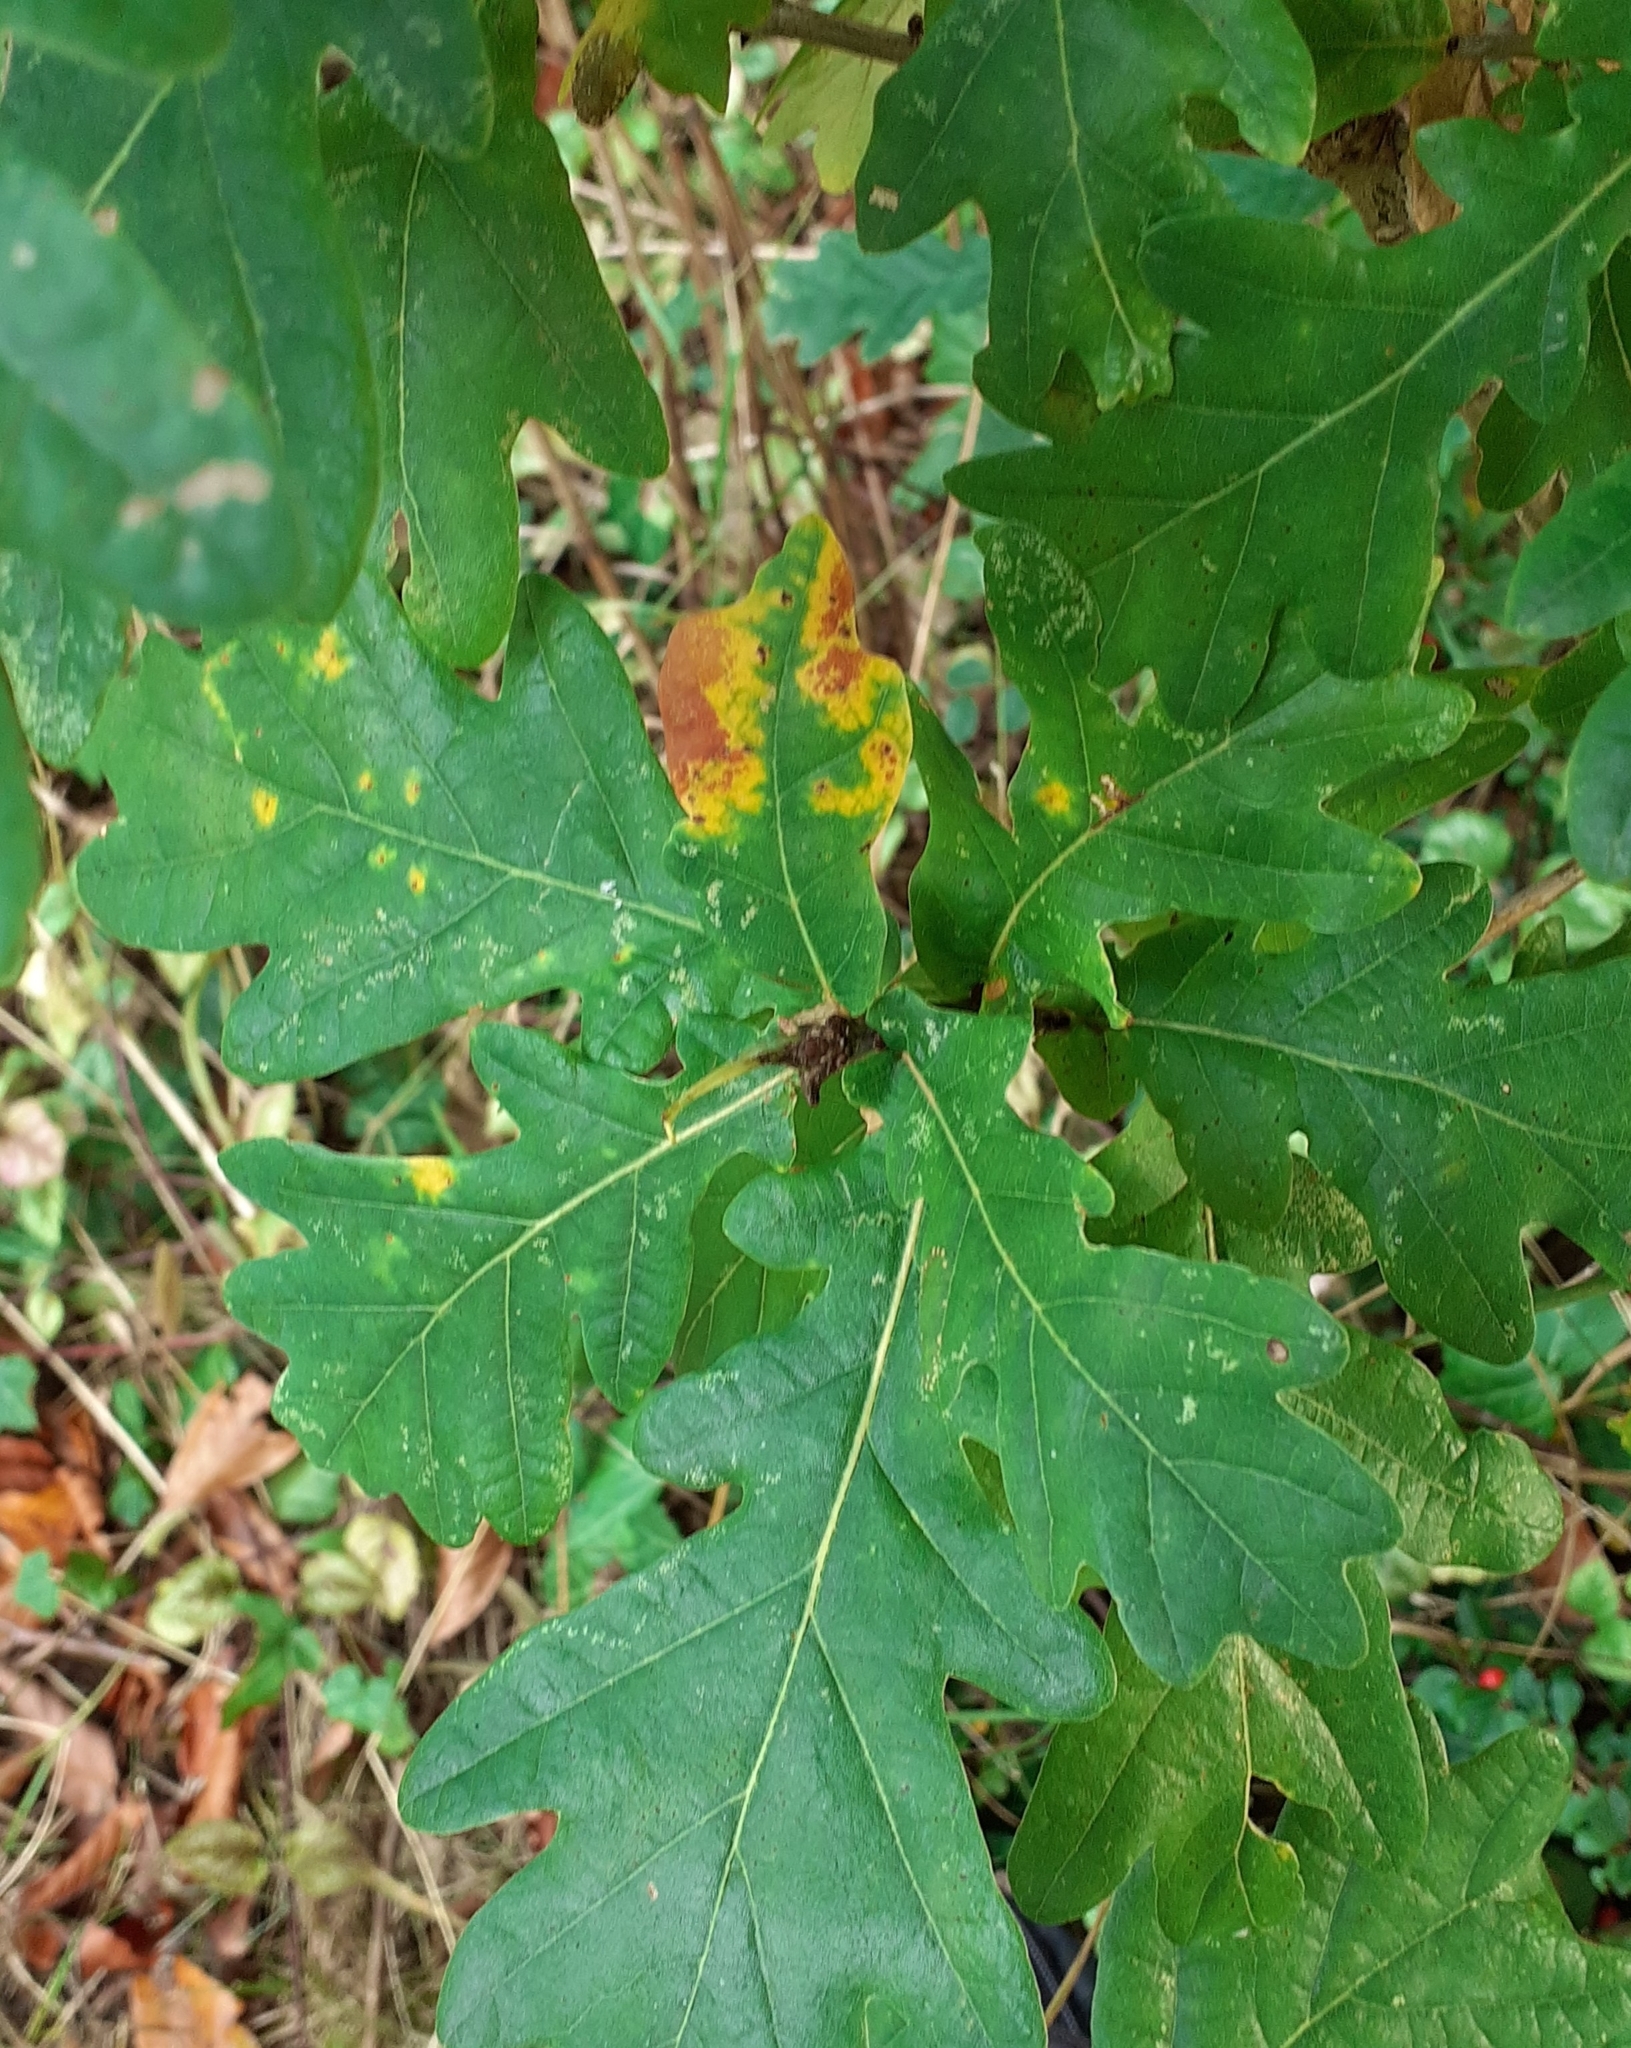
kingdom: Animalia
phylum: Arthropoda
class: Insecta
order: Hymenoptera
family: Cynipidae
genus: Andricus
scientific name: Andricus aries
